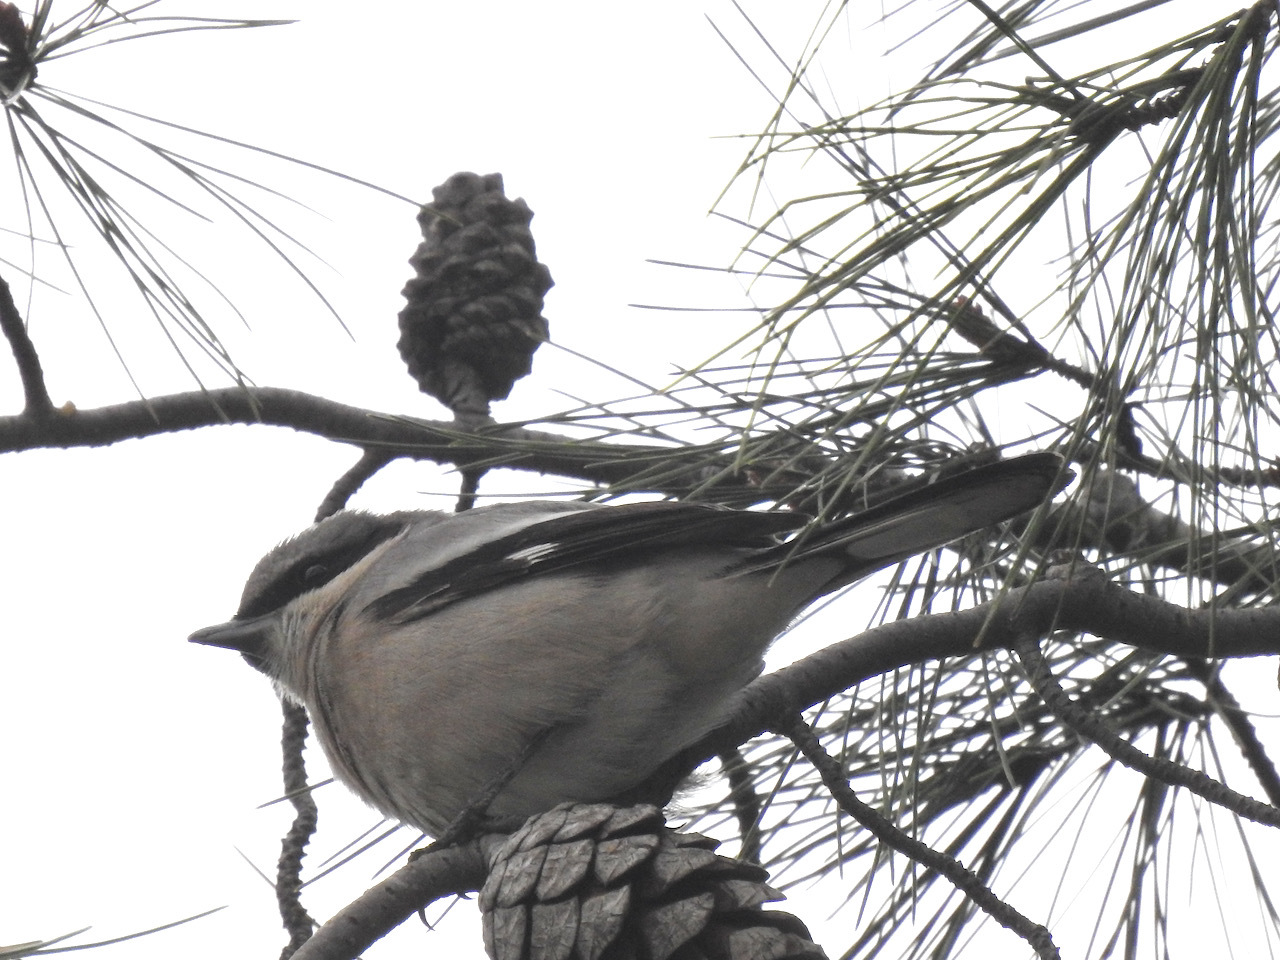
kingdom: Animalia
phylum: Chordata
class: Aves
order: Passeriformes
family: Laniidae
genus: Lanius
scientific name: Lanius ludovicianus
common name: Loggerhead shrike
